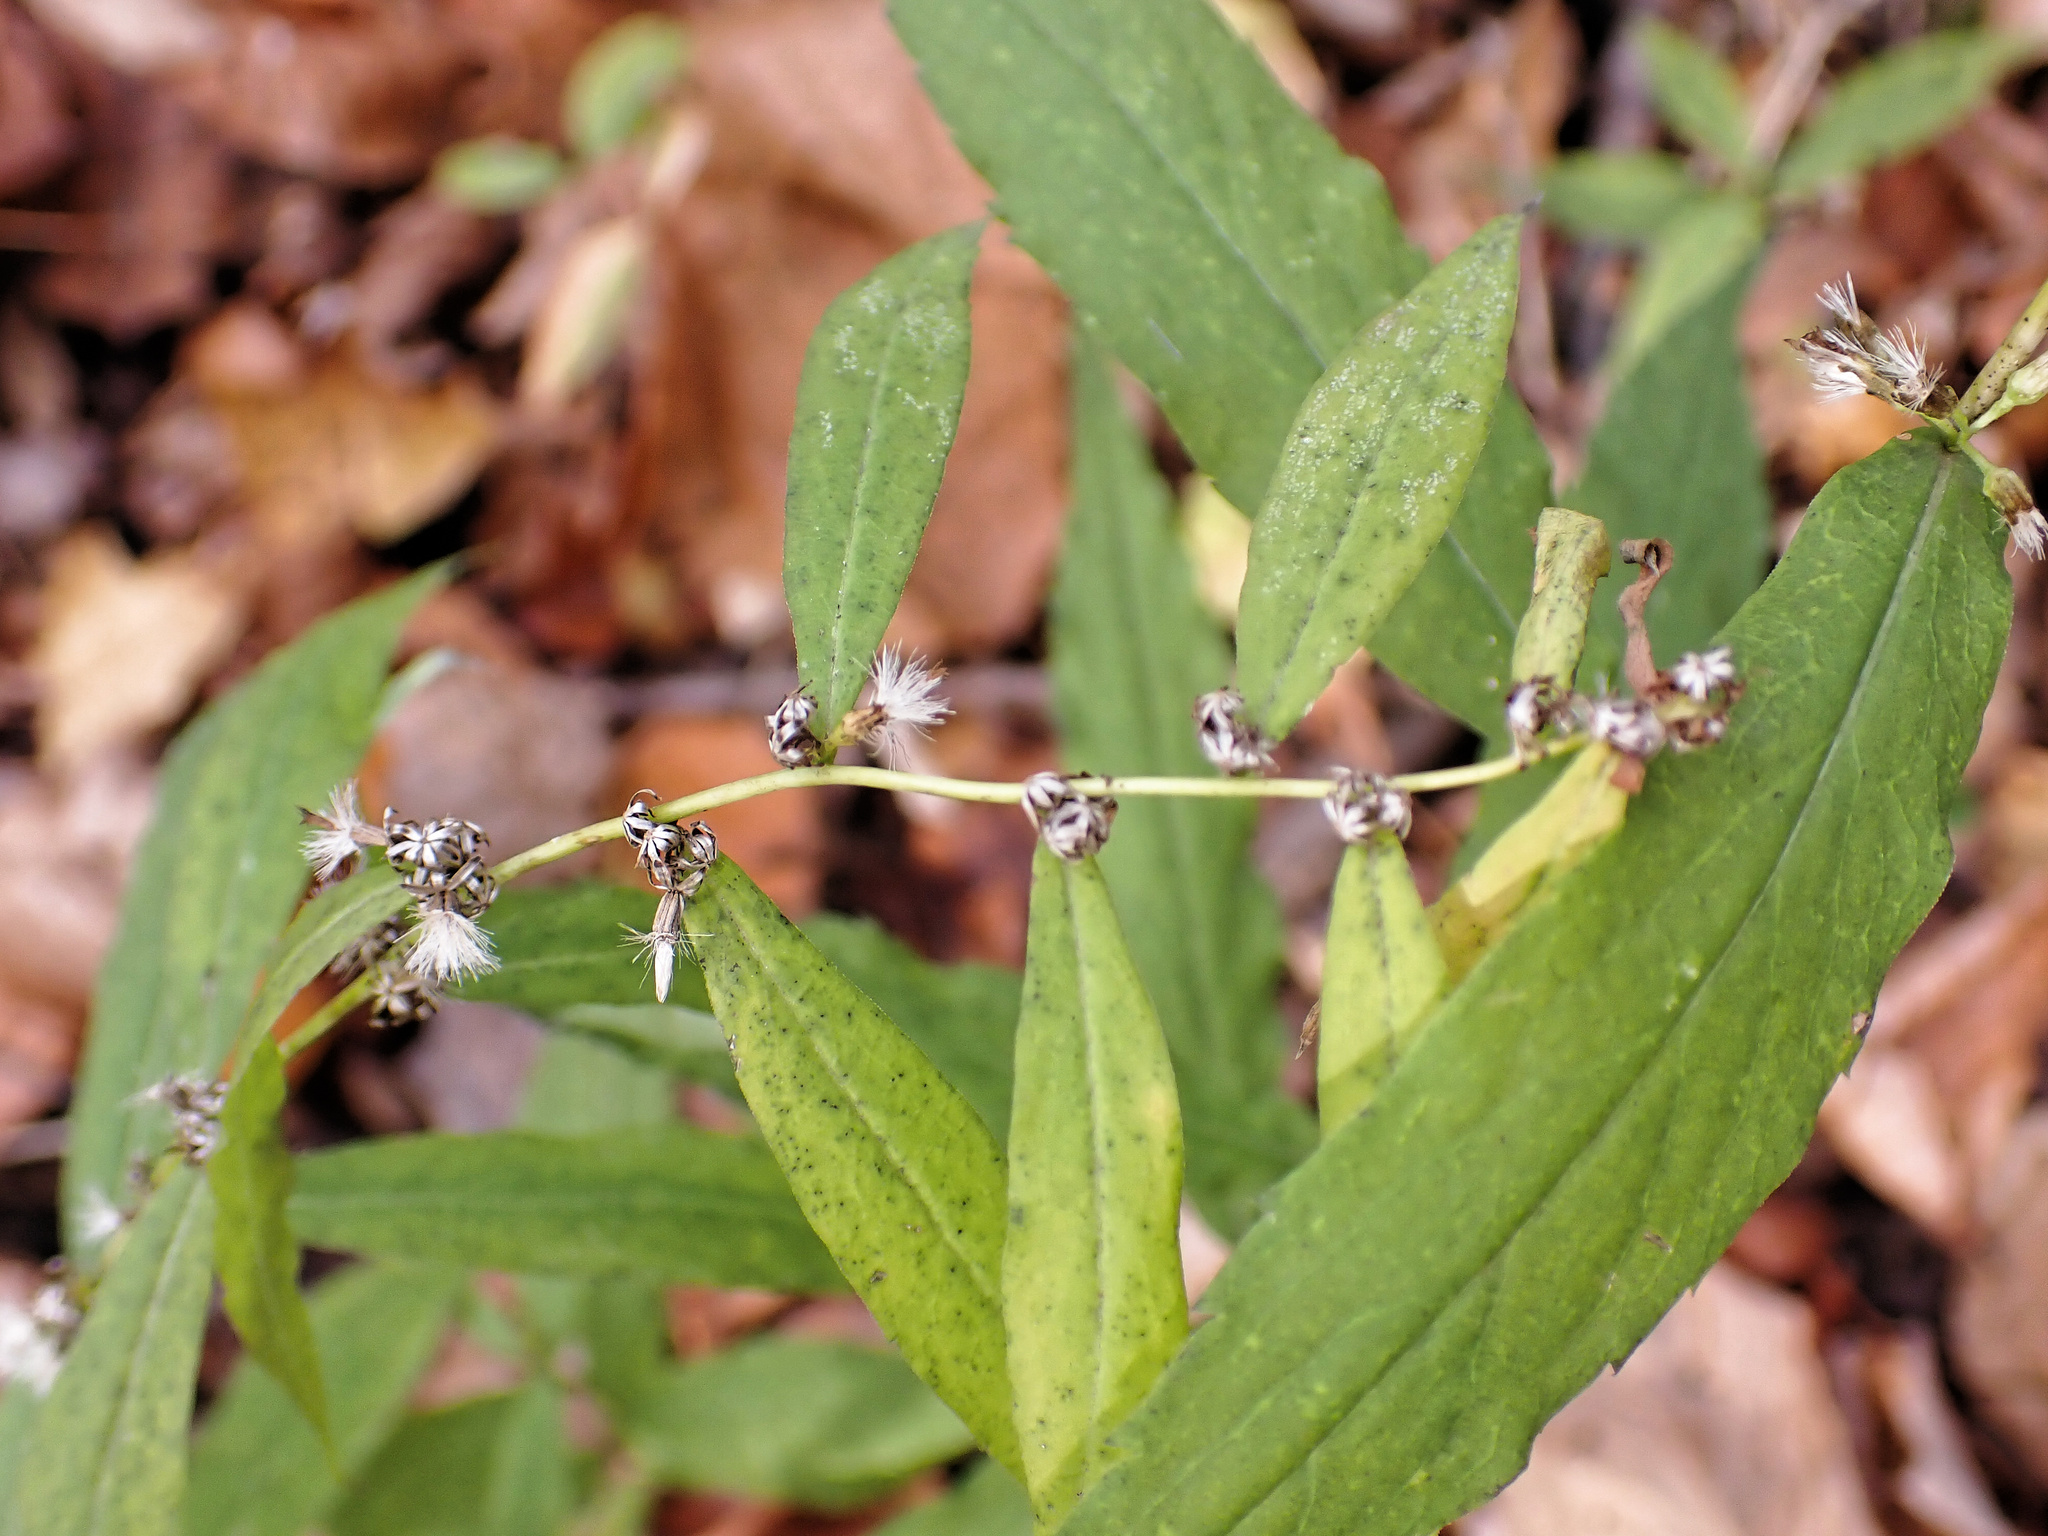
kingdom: Plantae
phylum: Tracheophyta
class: Magnoliopsida
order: Asterales
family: Asteraceae
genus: Solidago
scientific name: Solidago caesia
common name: Woodland goldenrod
